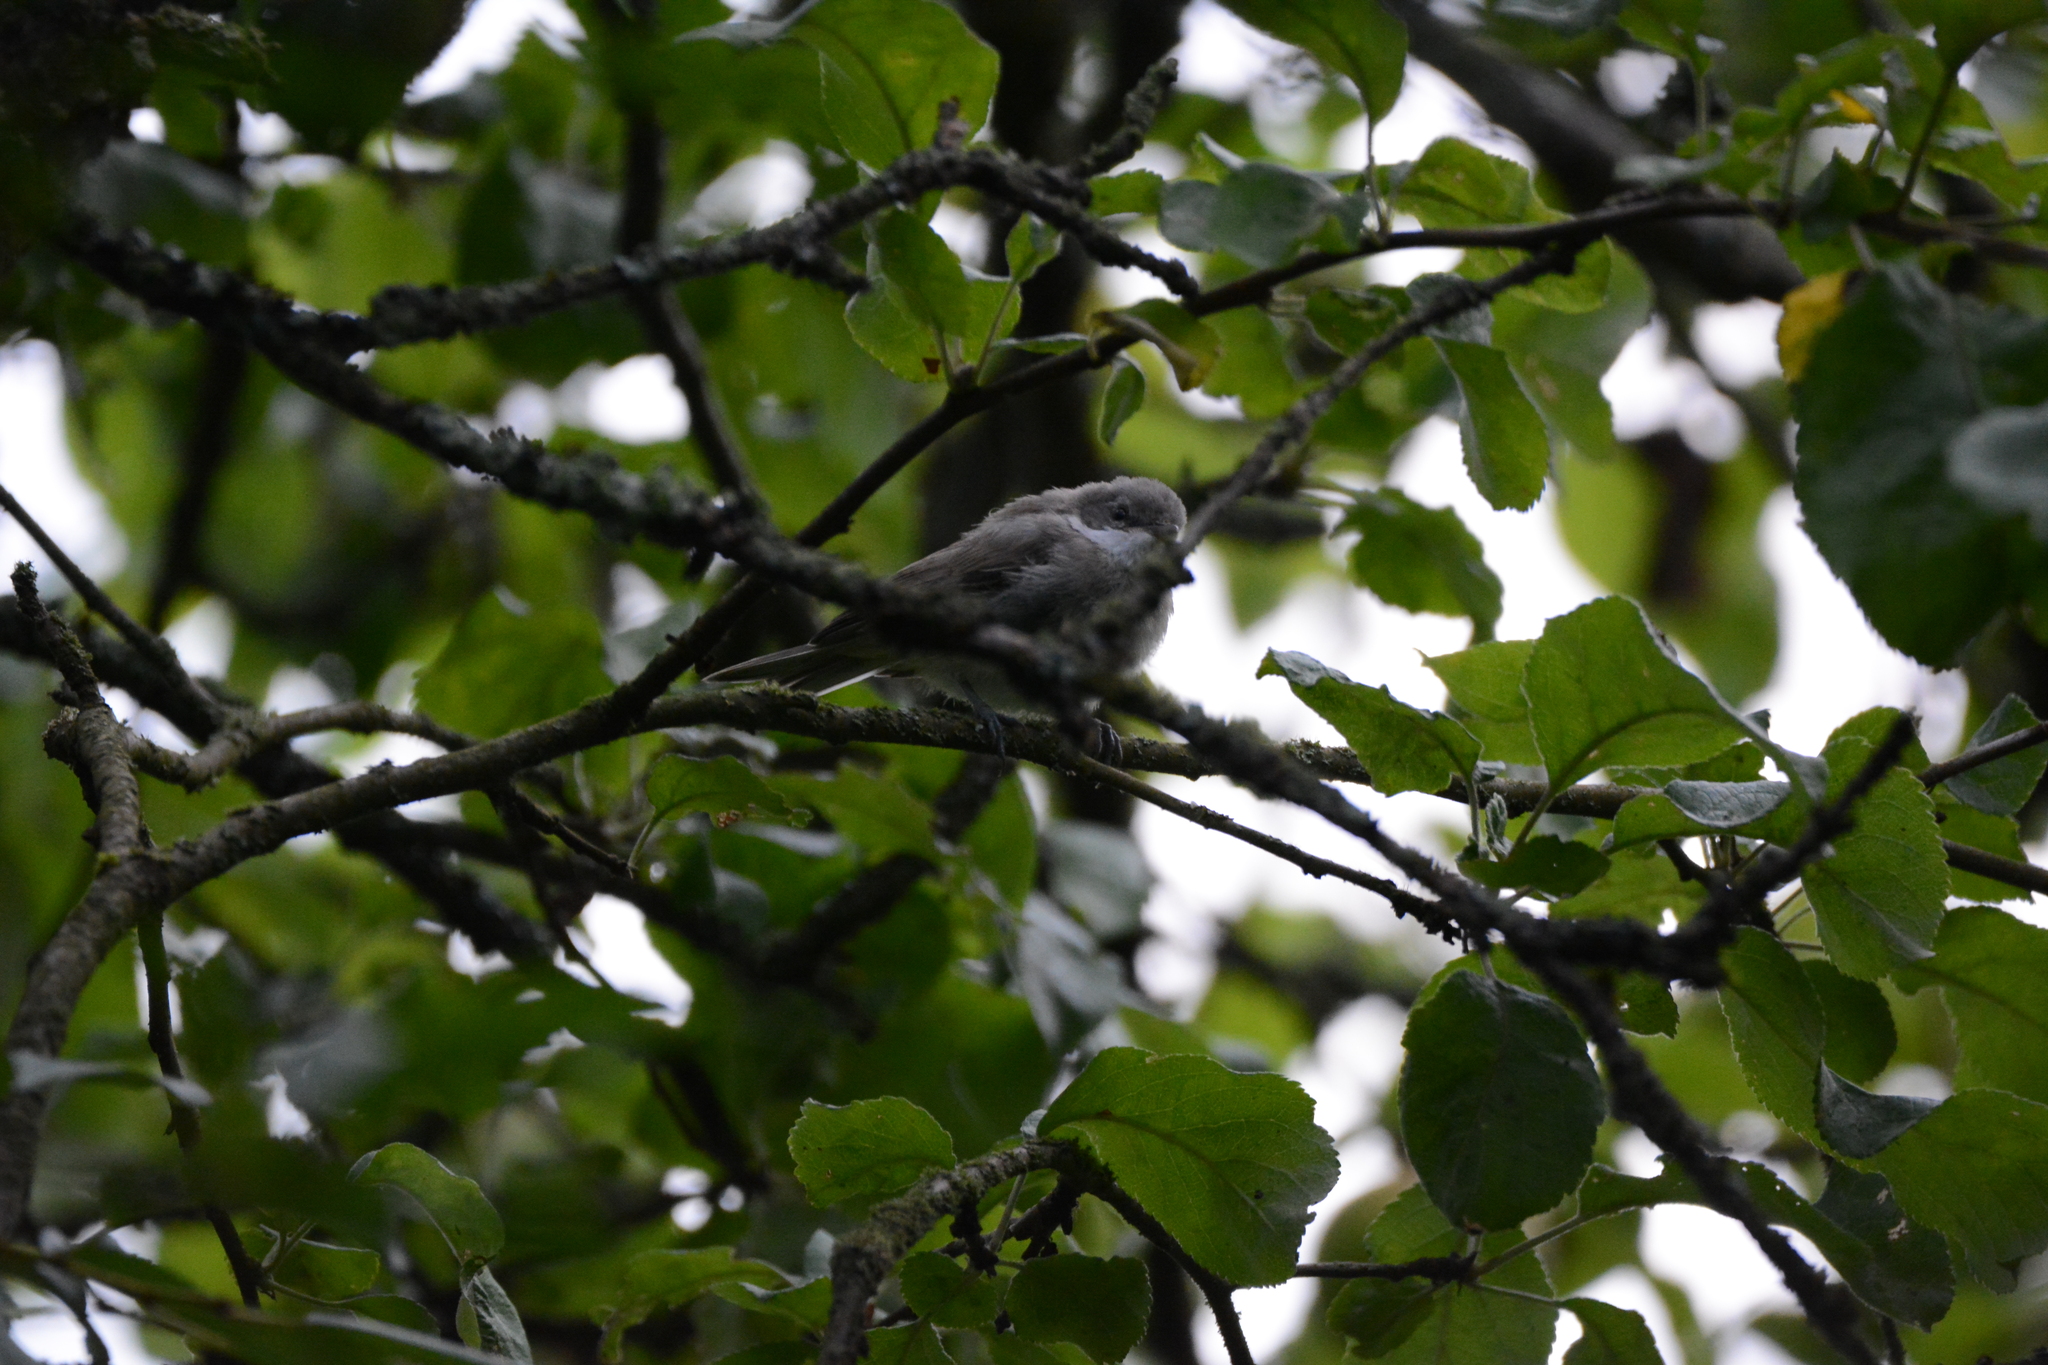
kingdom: Animalia
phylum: Chordata
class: Aves
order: Passeriformes
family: Sylviidae
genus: Sylvia
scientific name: Sylvia curruca
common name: Lesser whitethroat
